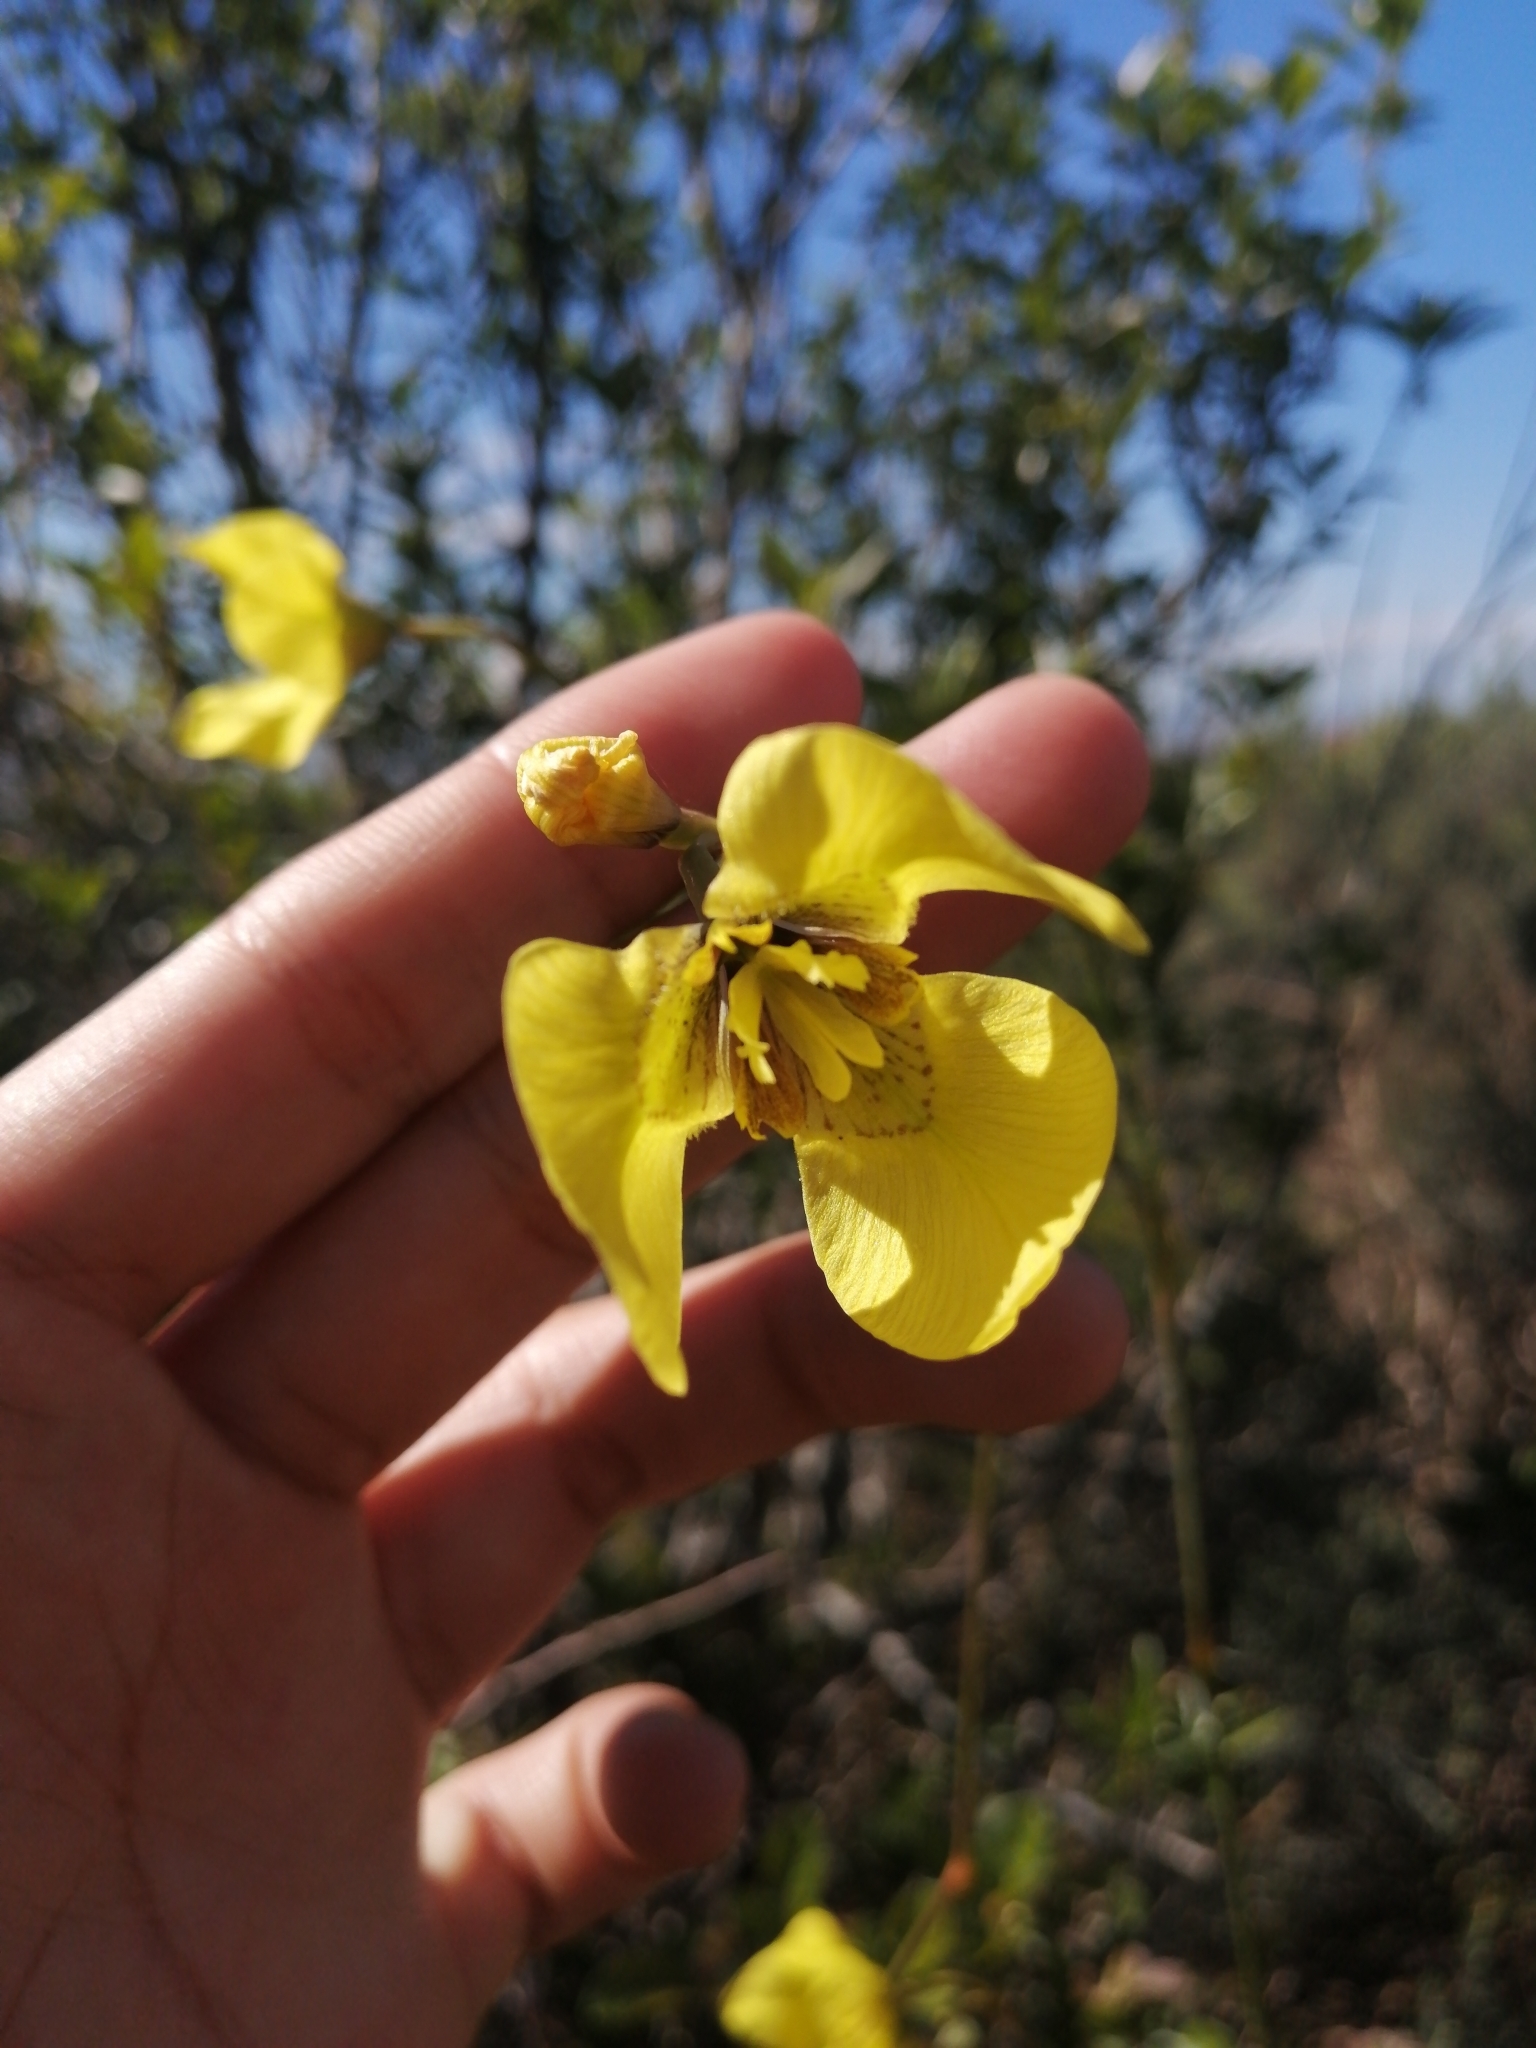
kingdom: Plantae
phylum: Tracheophyta
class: Liliopsida
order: Asparagales
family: Iridaceae
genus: Moraea
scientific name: Moraea bellendenii
